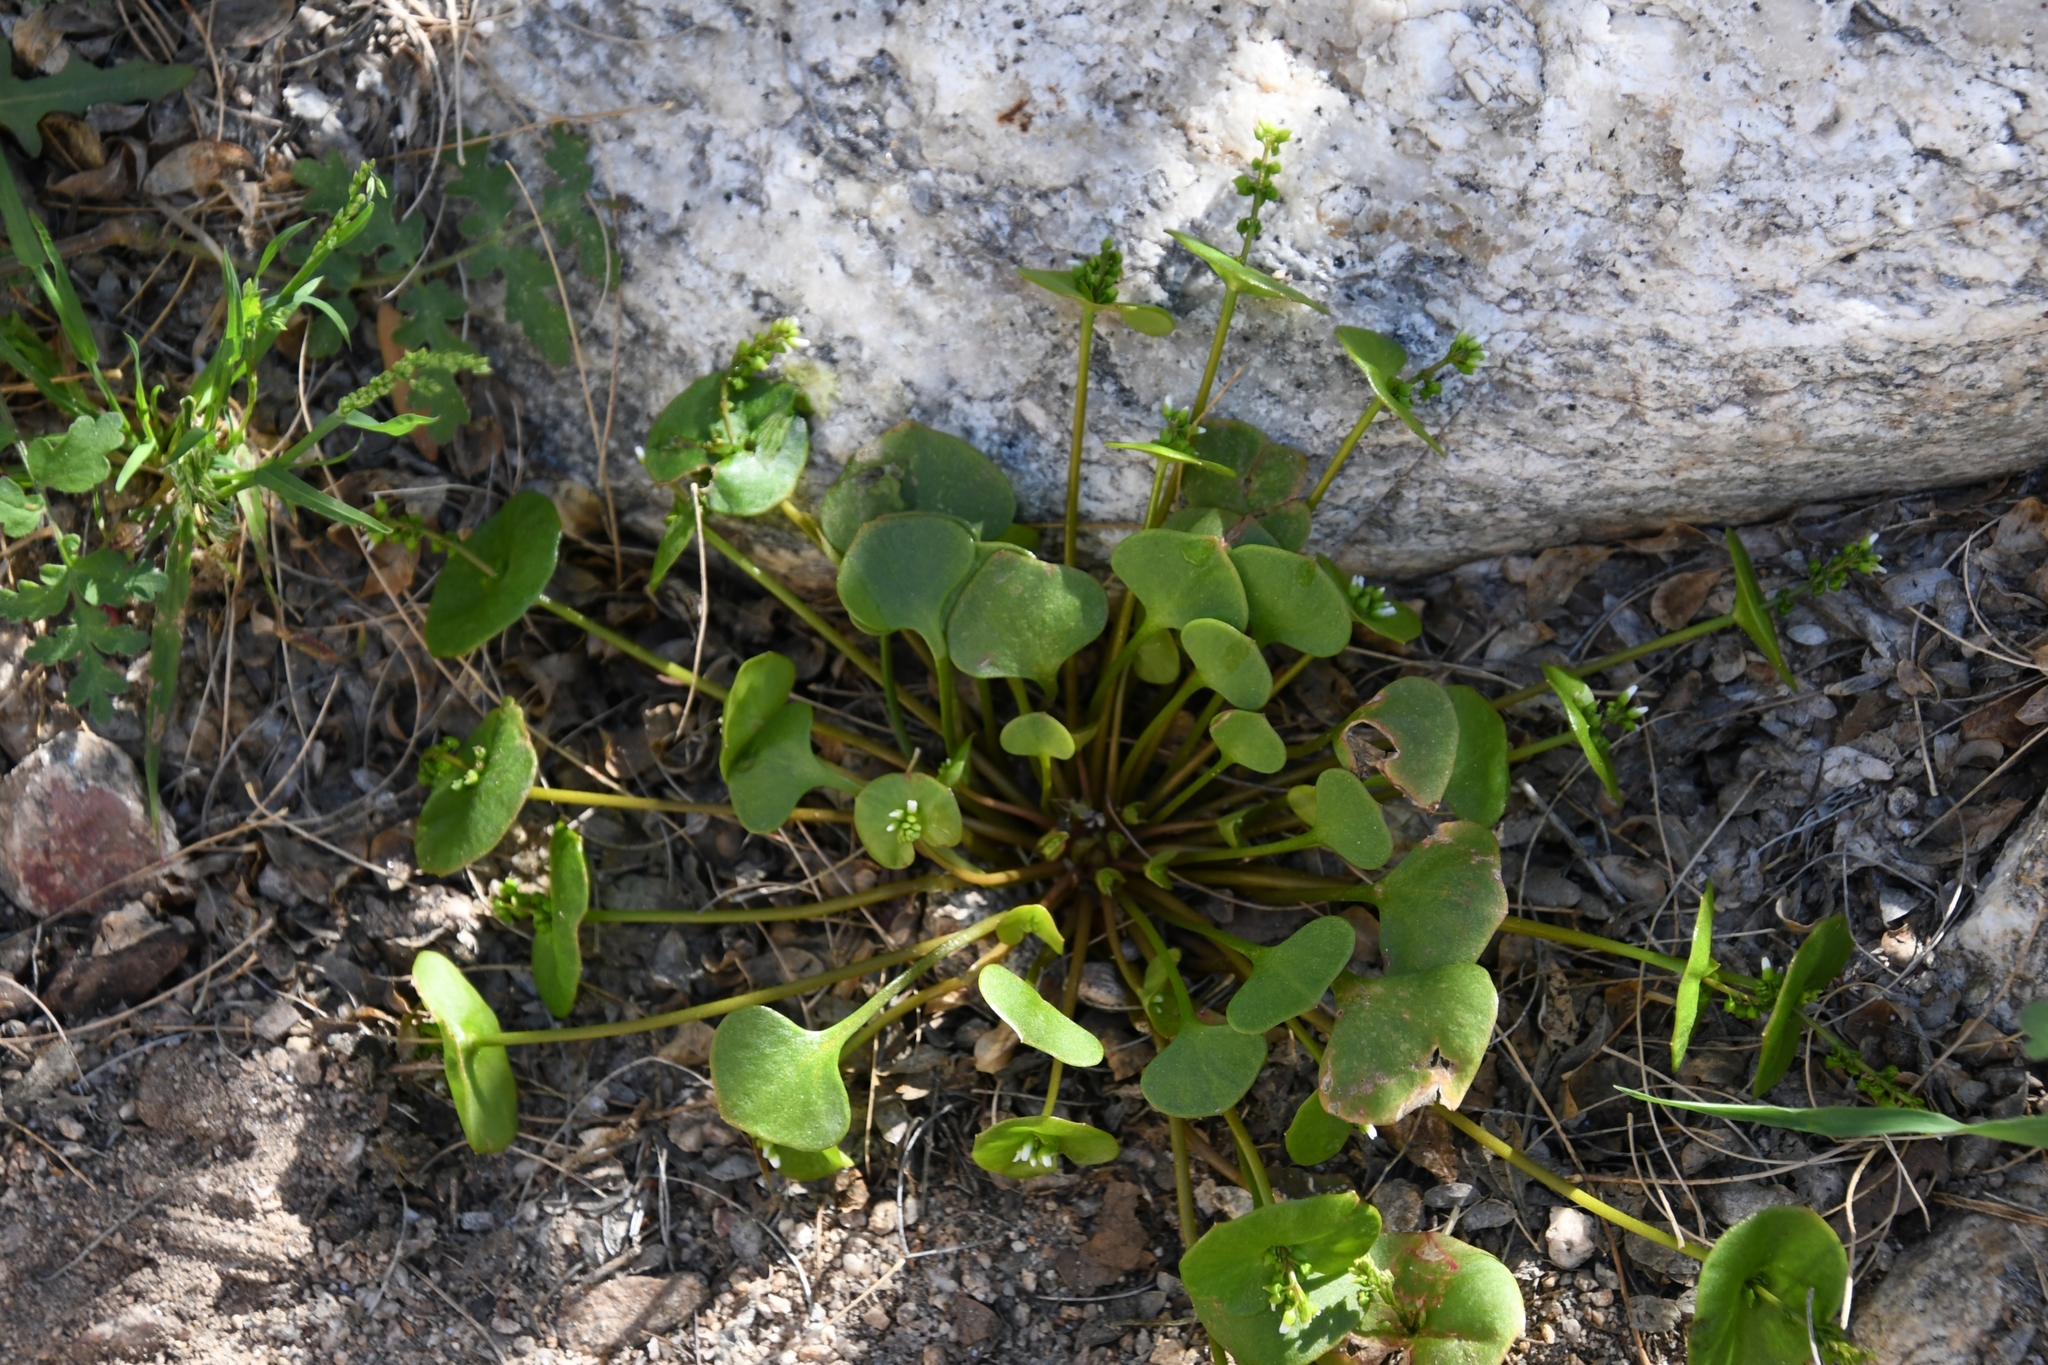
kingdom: Plantae
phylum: Tracheophyta
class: Magnoliopsida
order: Caryophyllales
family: Montiaceae
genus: Claytonia
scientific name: Claytonia perfoliata
